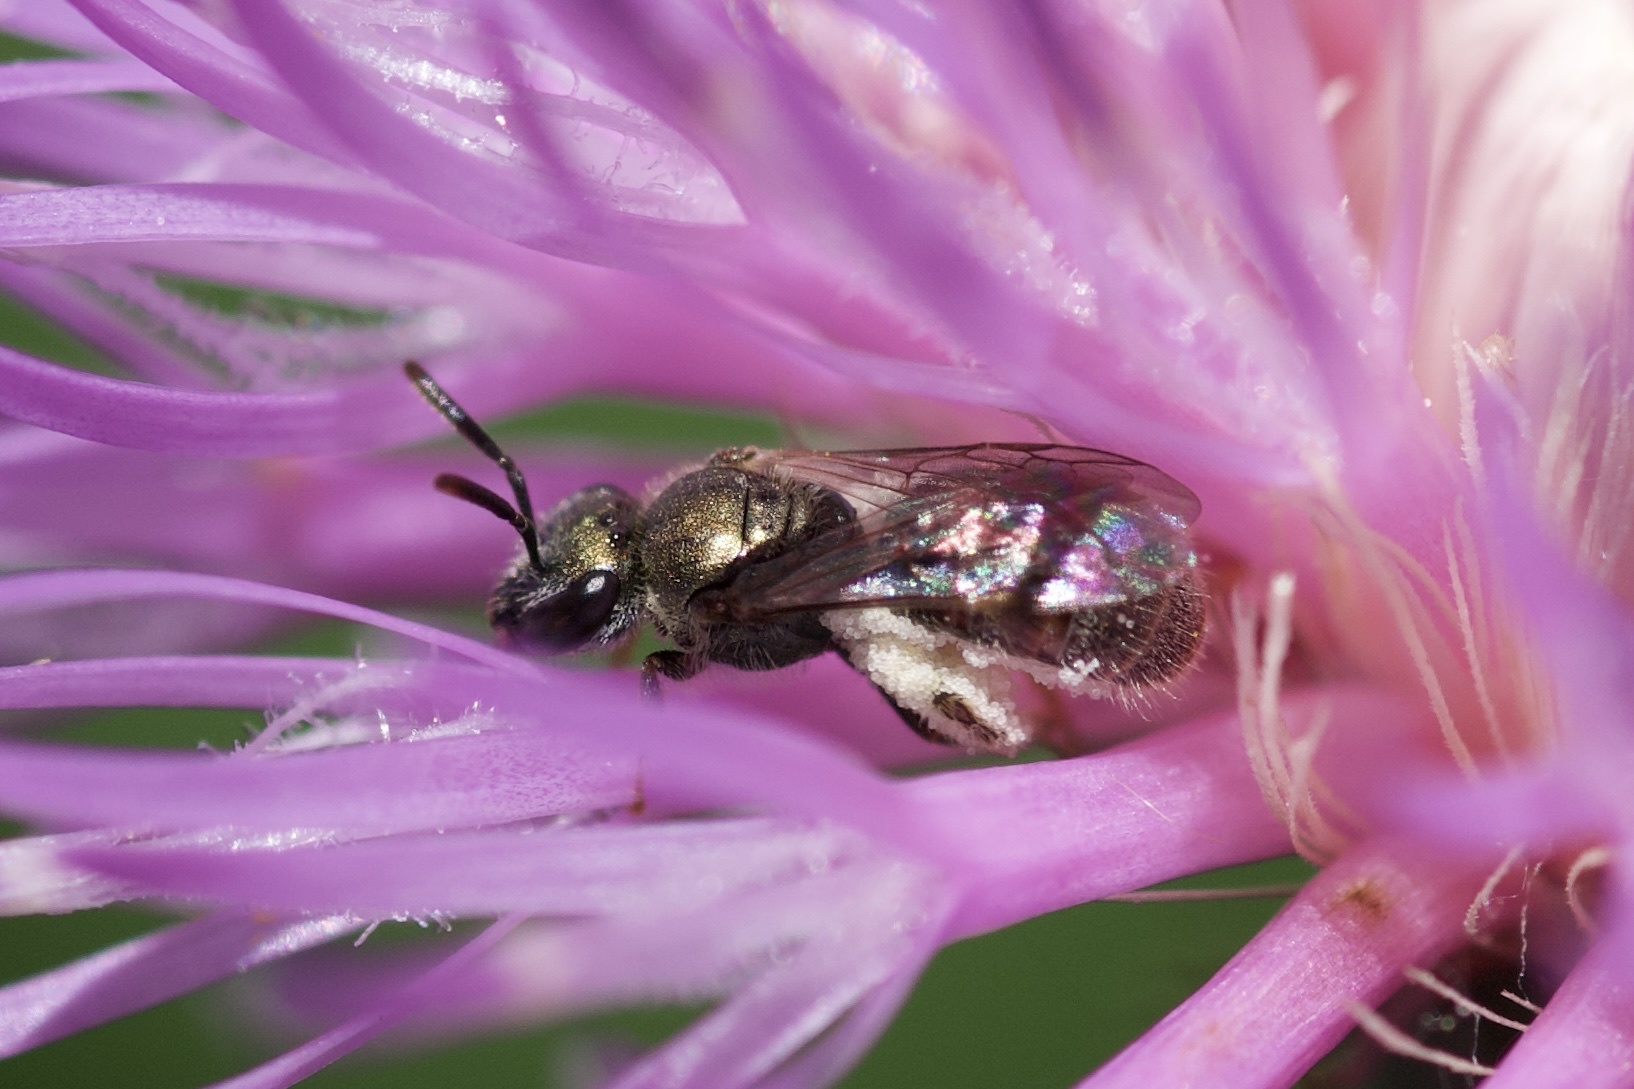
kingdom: Animalia
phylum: Arthropoda
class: Insecta
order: Hymenoptera
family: Halictidae
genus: Dialictus
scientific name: Dialictus
